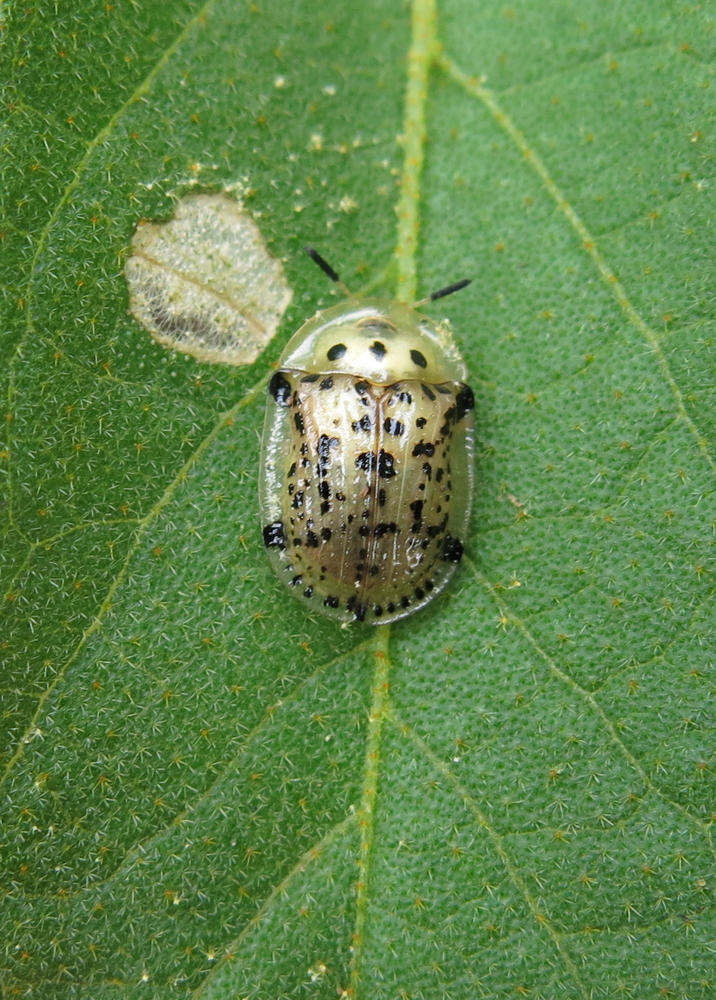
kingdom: Animalia
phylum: Arthropoda
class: Insecta
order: Coleoptera
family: Chrysomelidae
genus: Conchyloctenia
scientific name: Conchyloctenia tripuncticollis
